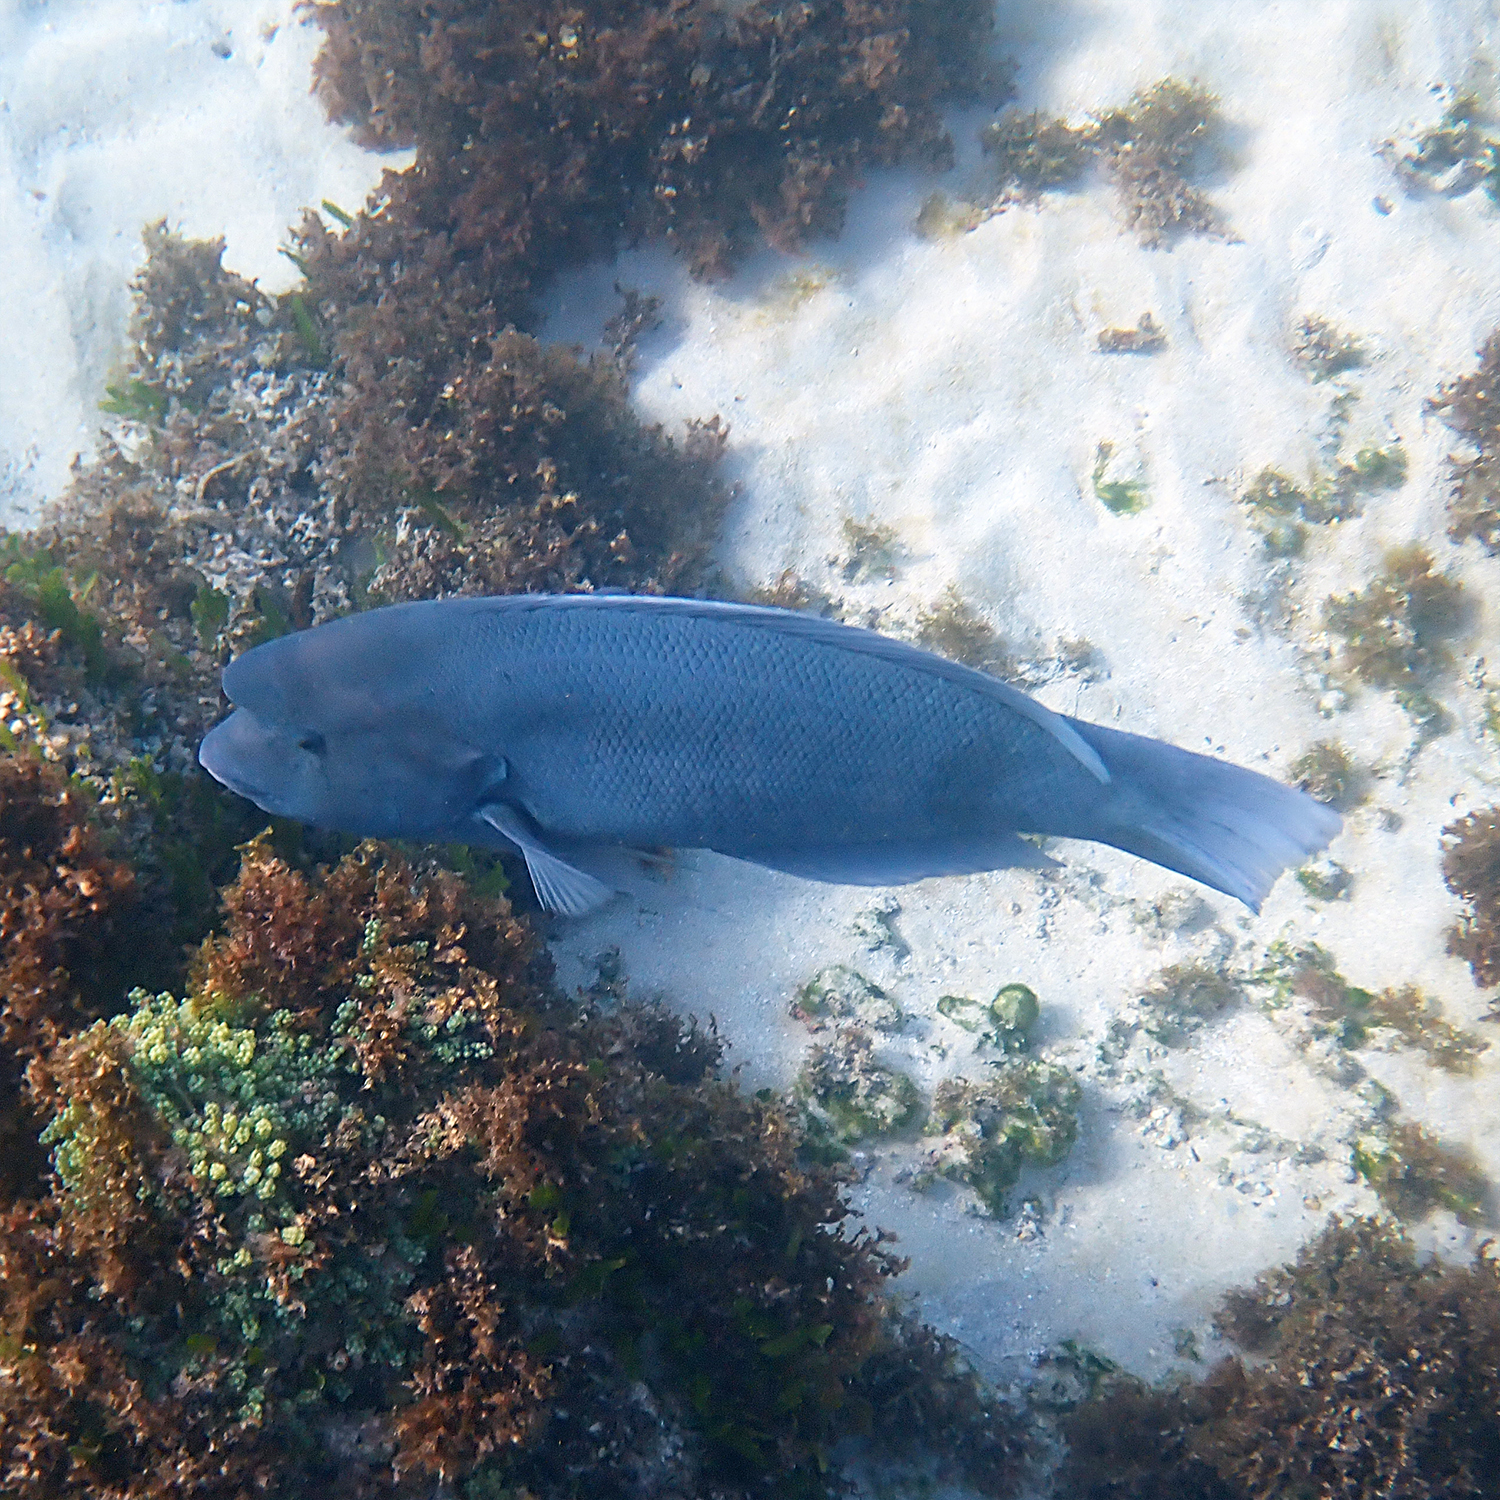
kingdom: Animalia
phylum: Chordata
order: Perciformes
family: Labridae
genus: Coris
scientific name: Coris bulbifrons
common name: Doubleheader
